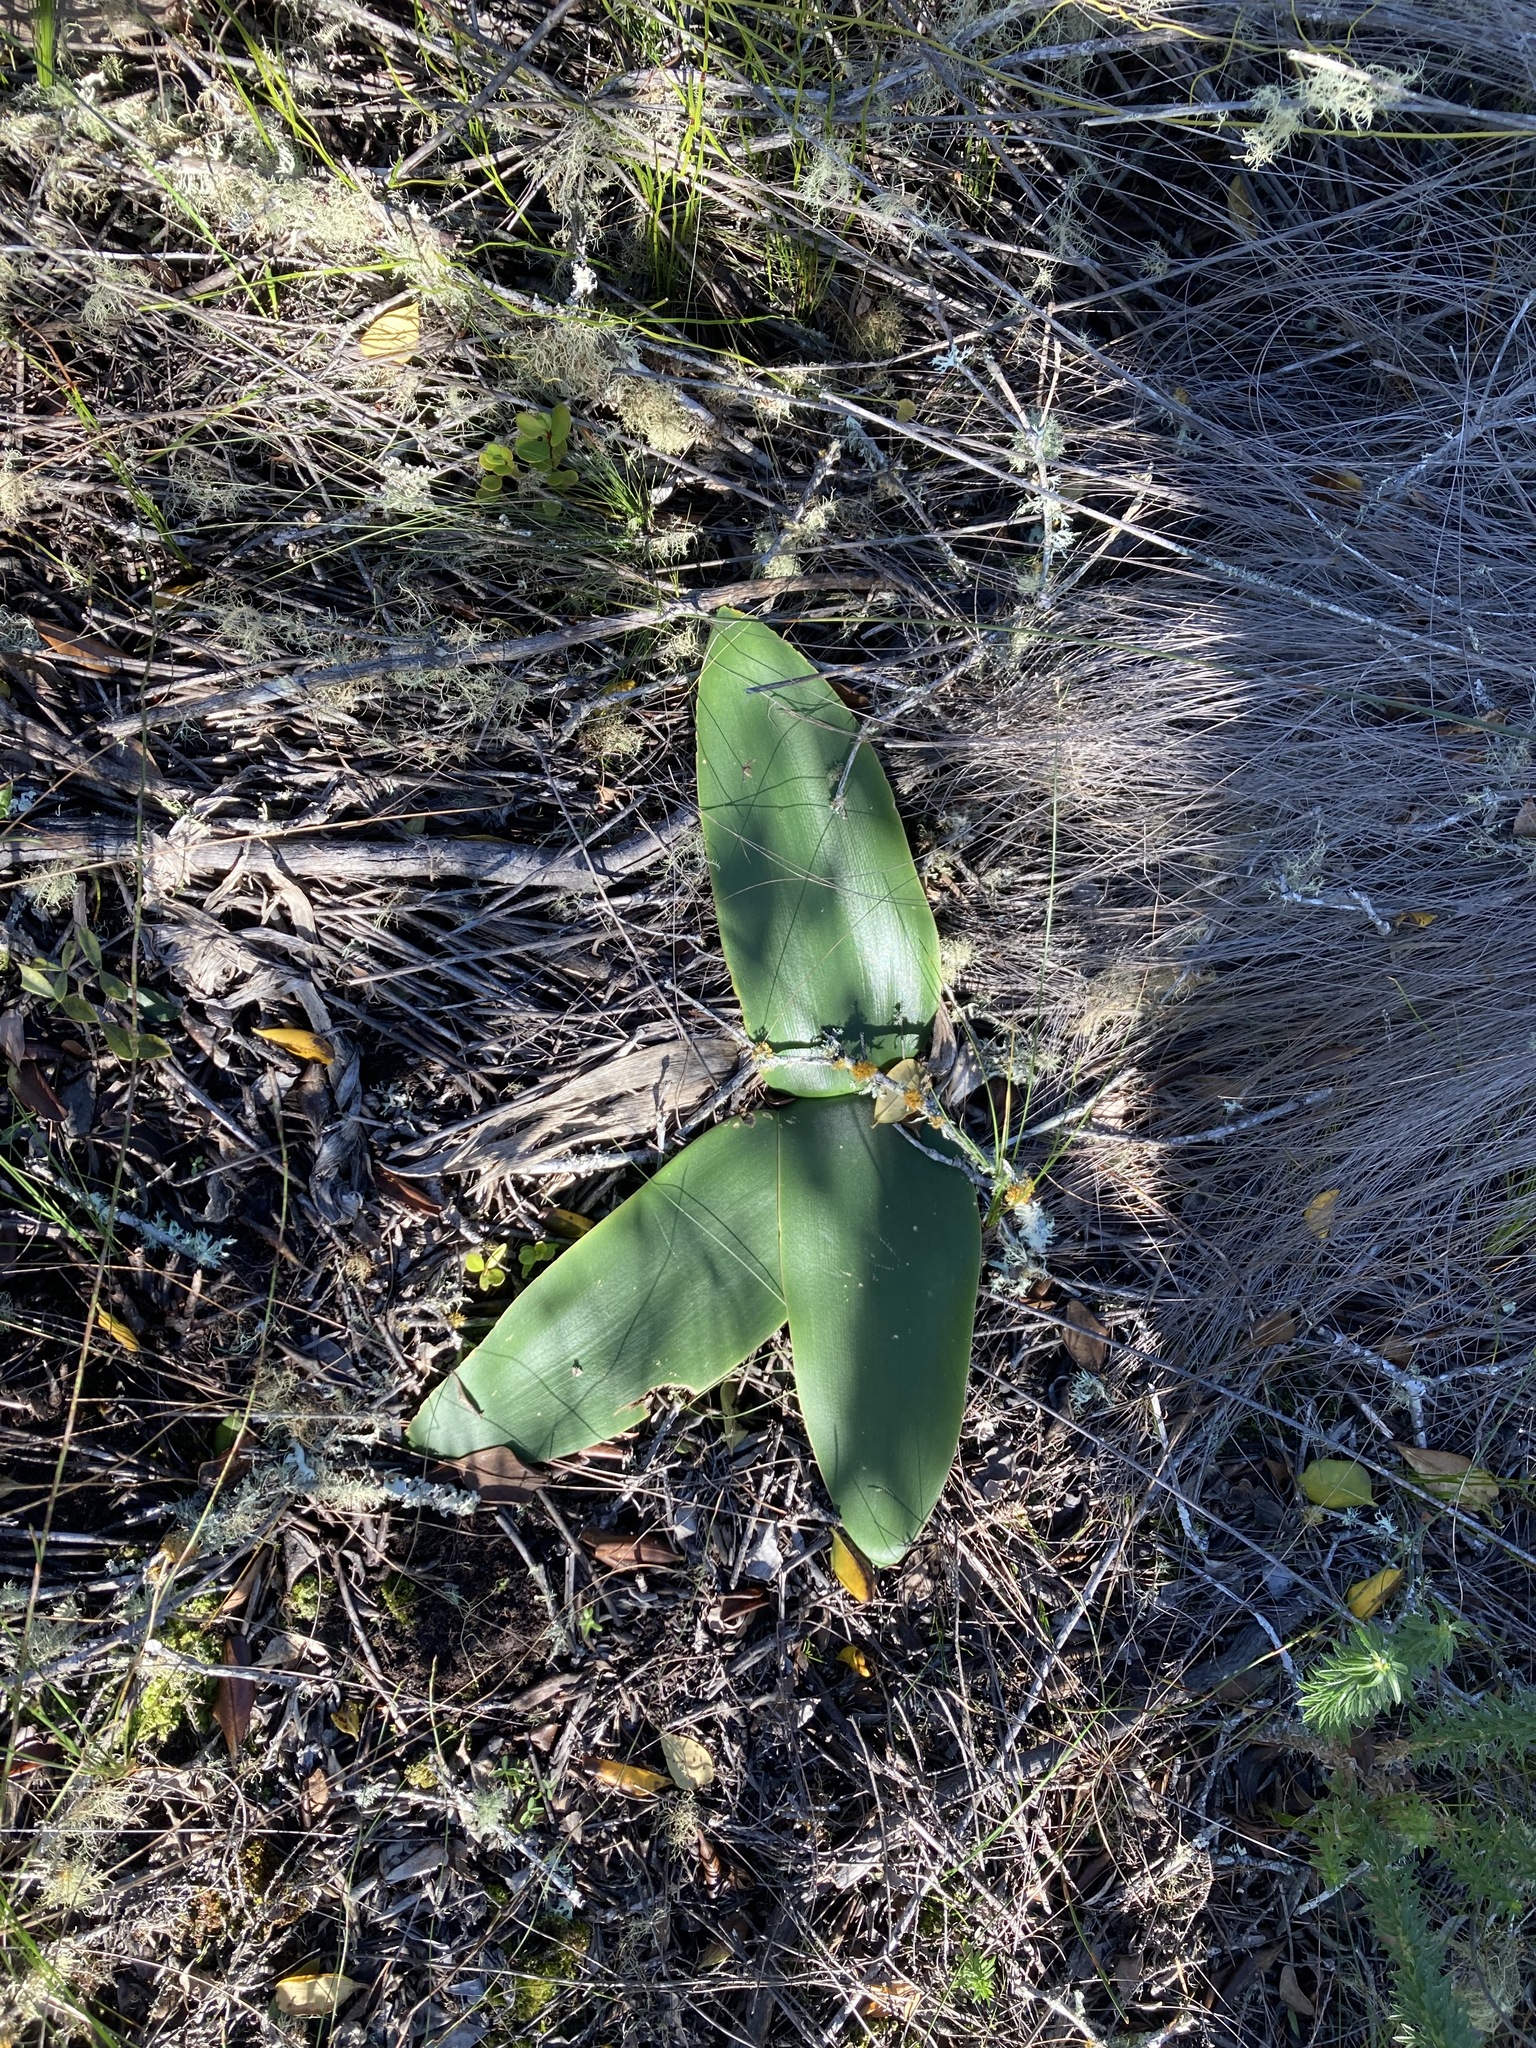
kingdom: Plantae
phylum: Tracheophyta
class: Liliopsida
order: Asparagales
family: Amaryllidaceae
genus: Brunsvigia
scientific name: Brunsvigia orientalis
